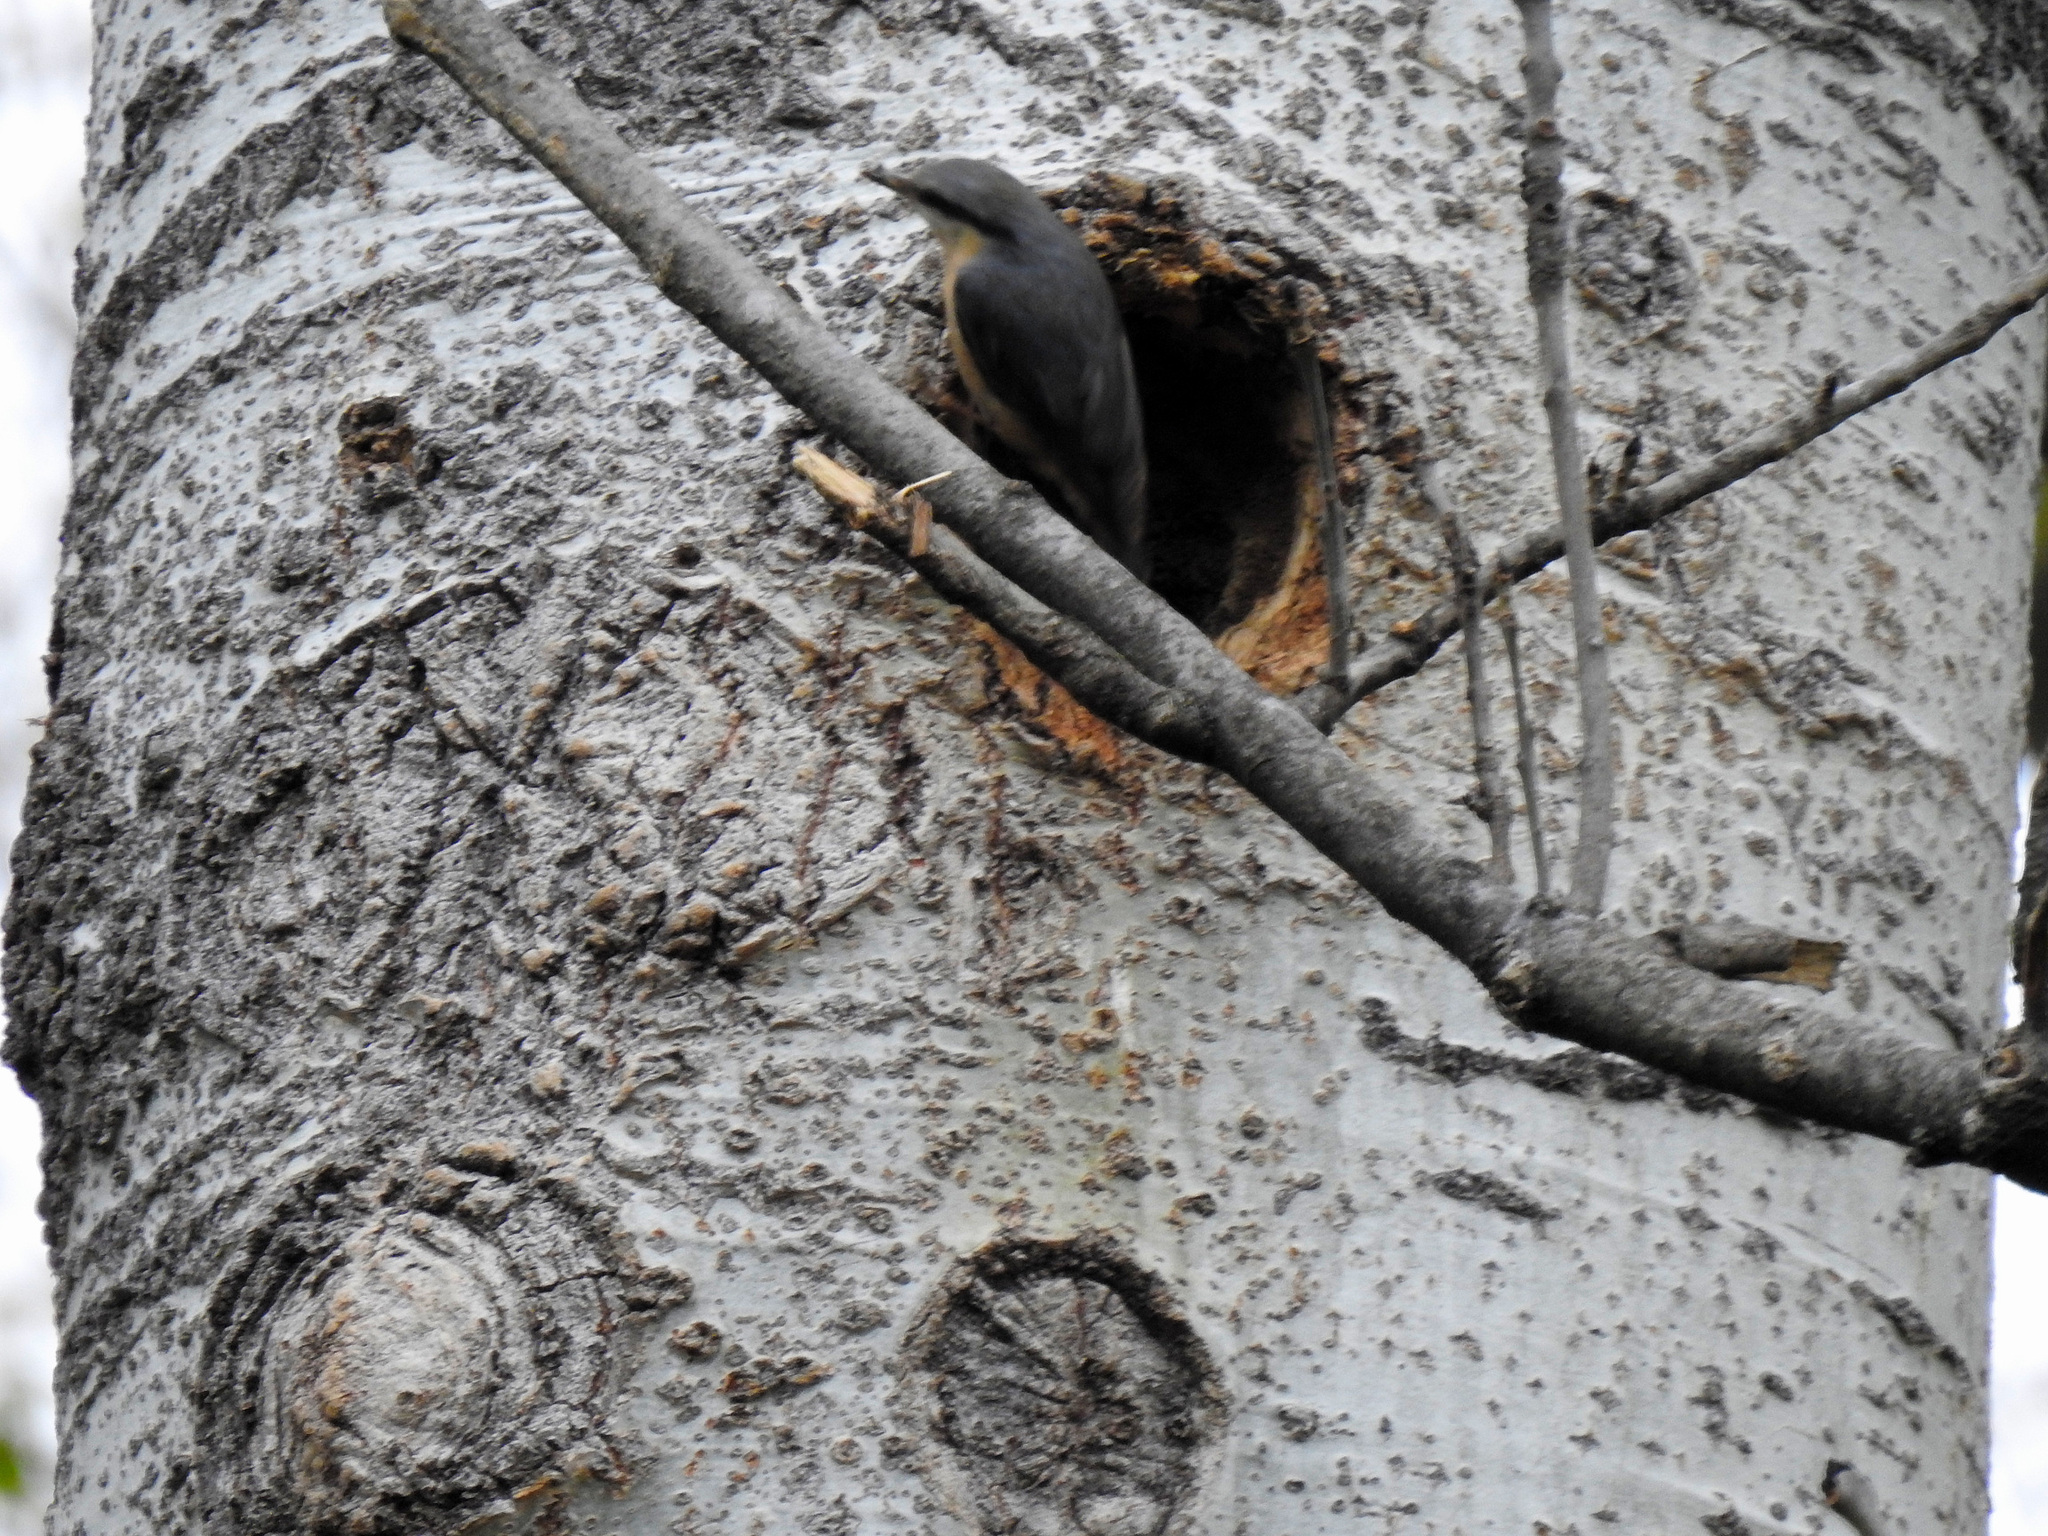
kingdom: Animalia
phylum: Chordata
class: Aves
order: Passeriformes
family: Sittidae
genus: Sitta
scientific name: Sitta europaea
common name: Eurasian nuthatch
